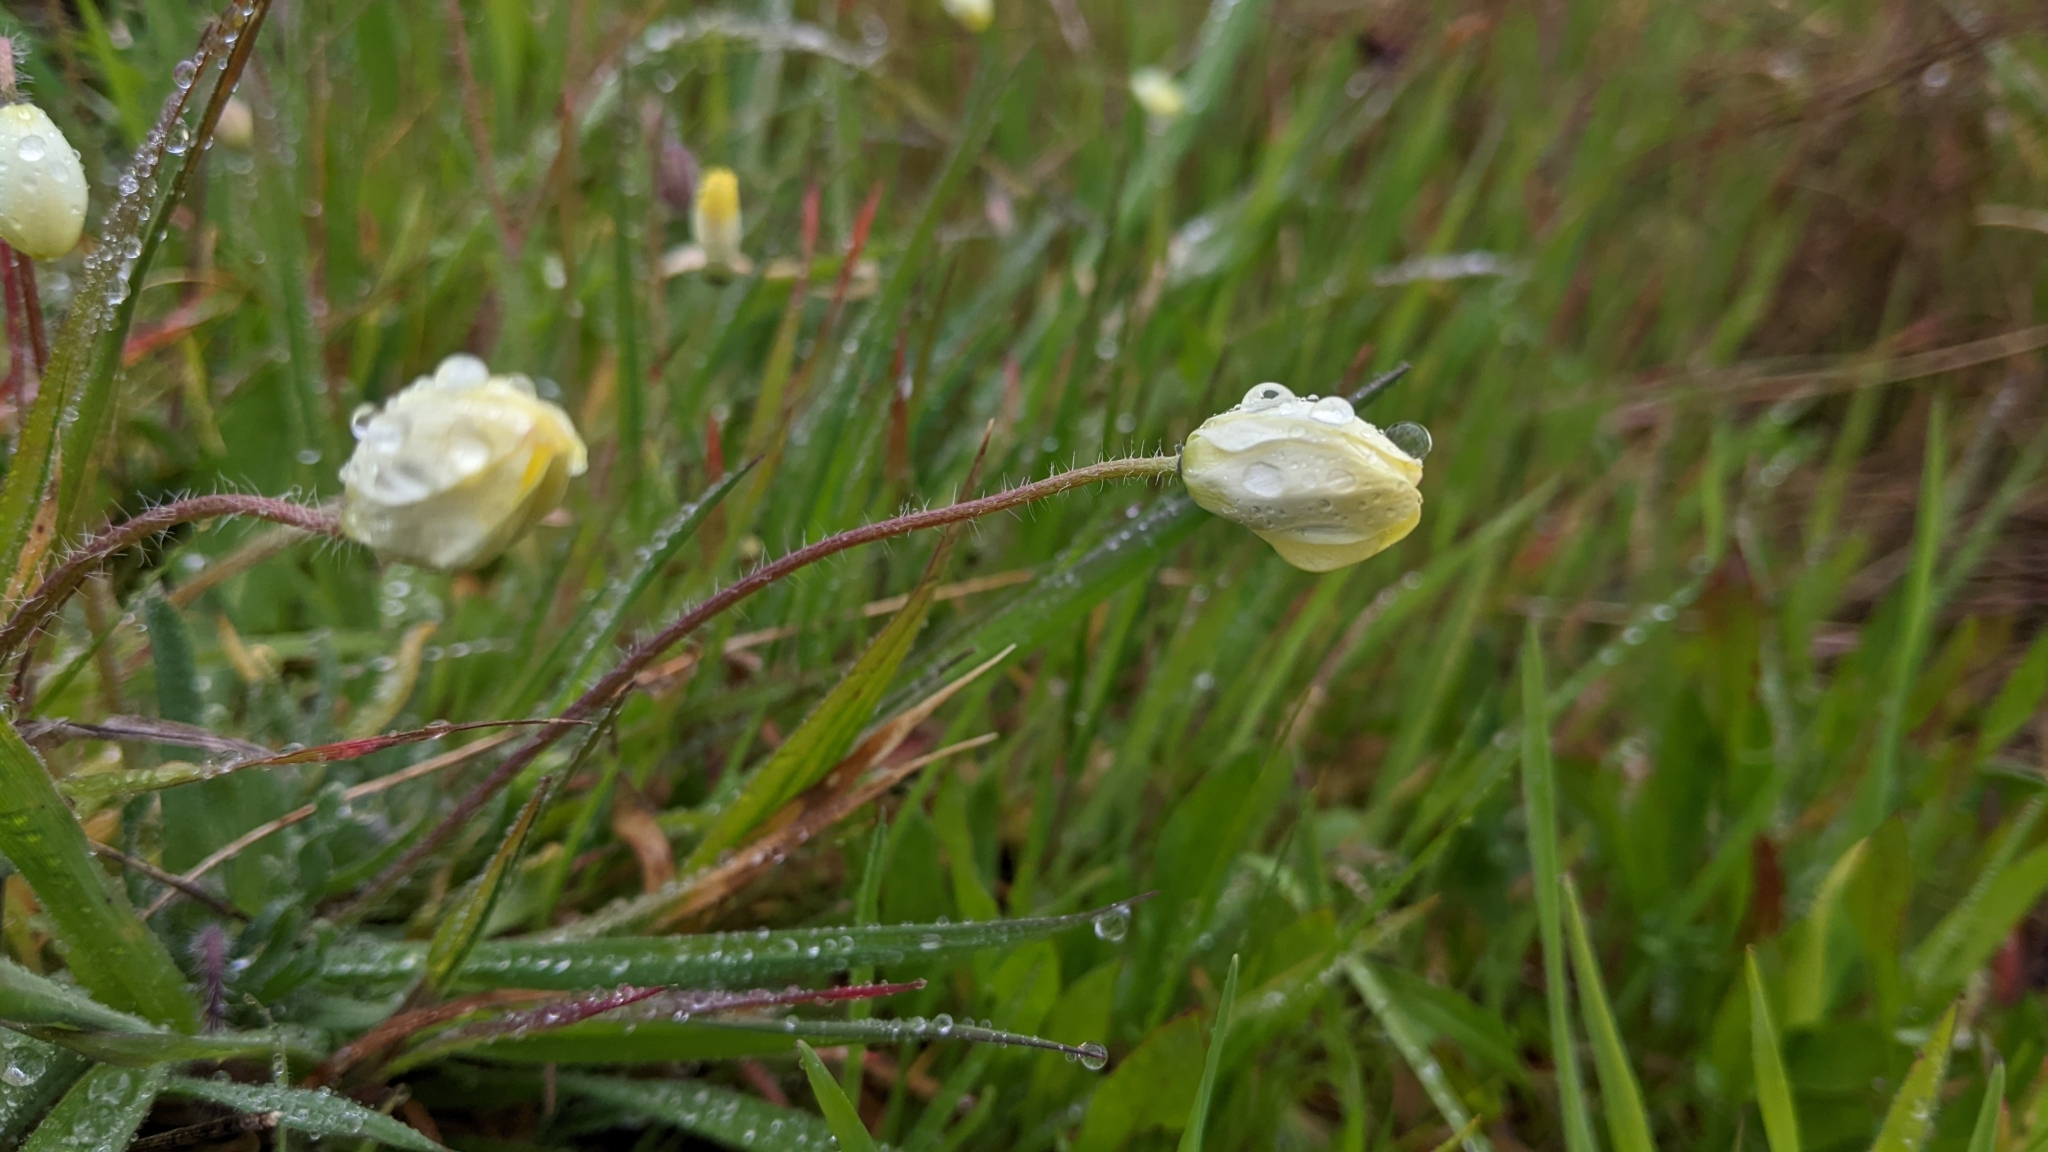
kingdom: Plantae
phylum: Tracheophyta
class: Magnoliopsida
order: Ranunculales
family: Papaveraceae
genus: Platystemon
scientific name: Platystemon californicus
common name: Cream-cups
